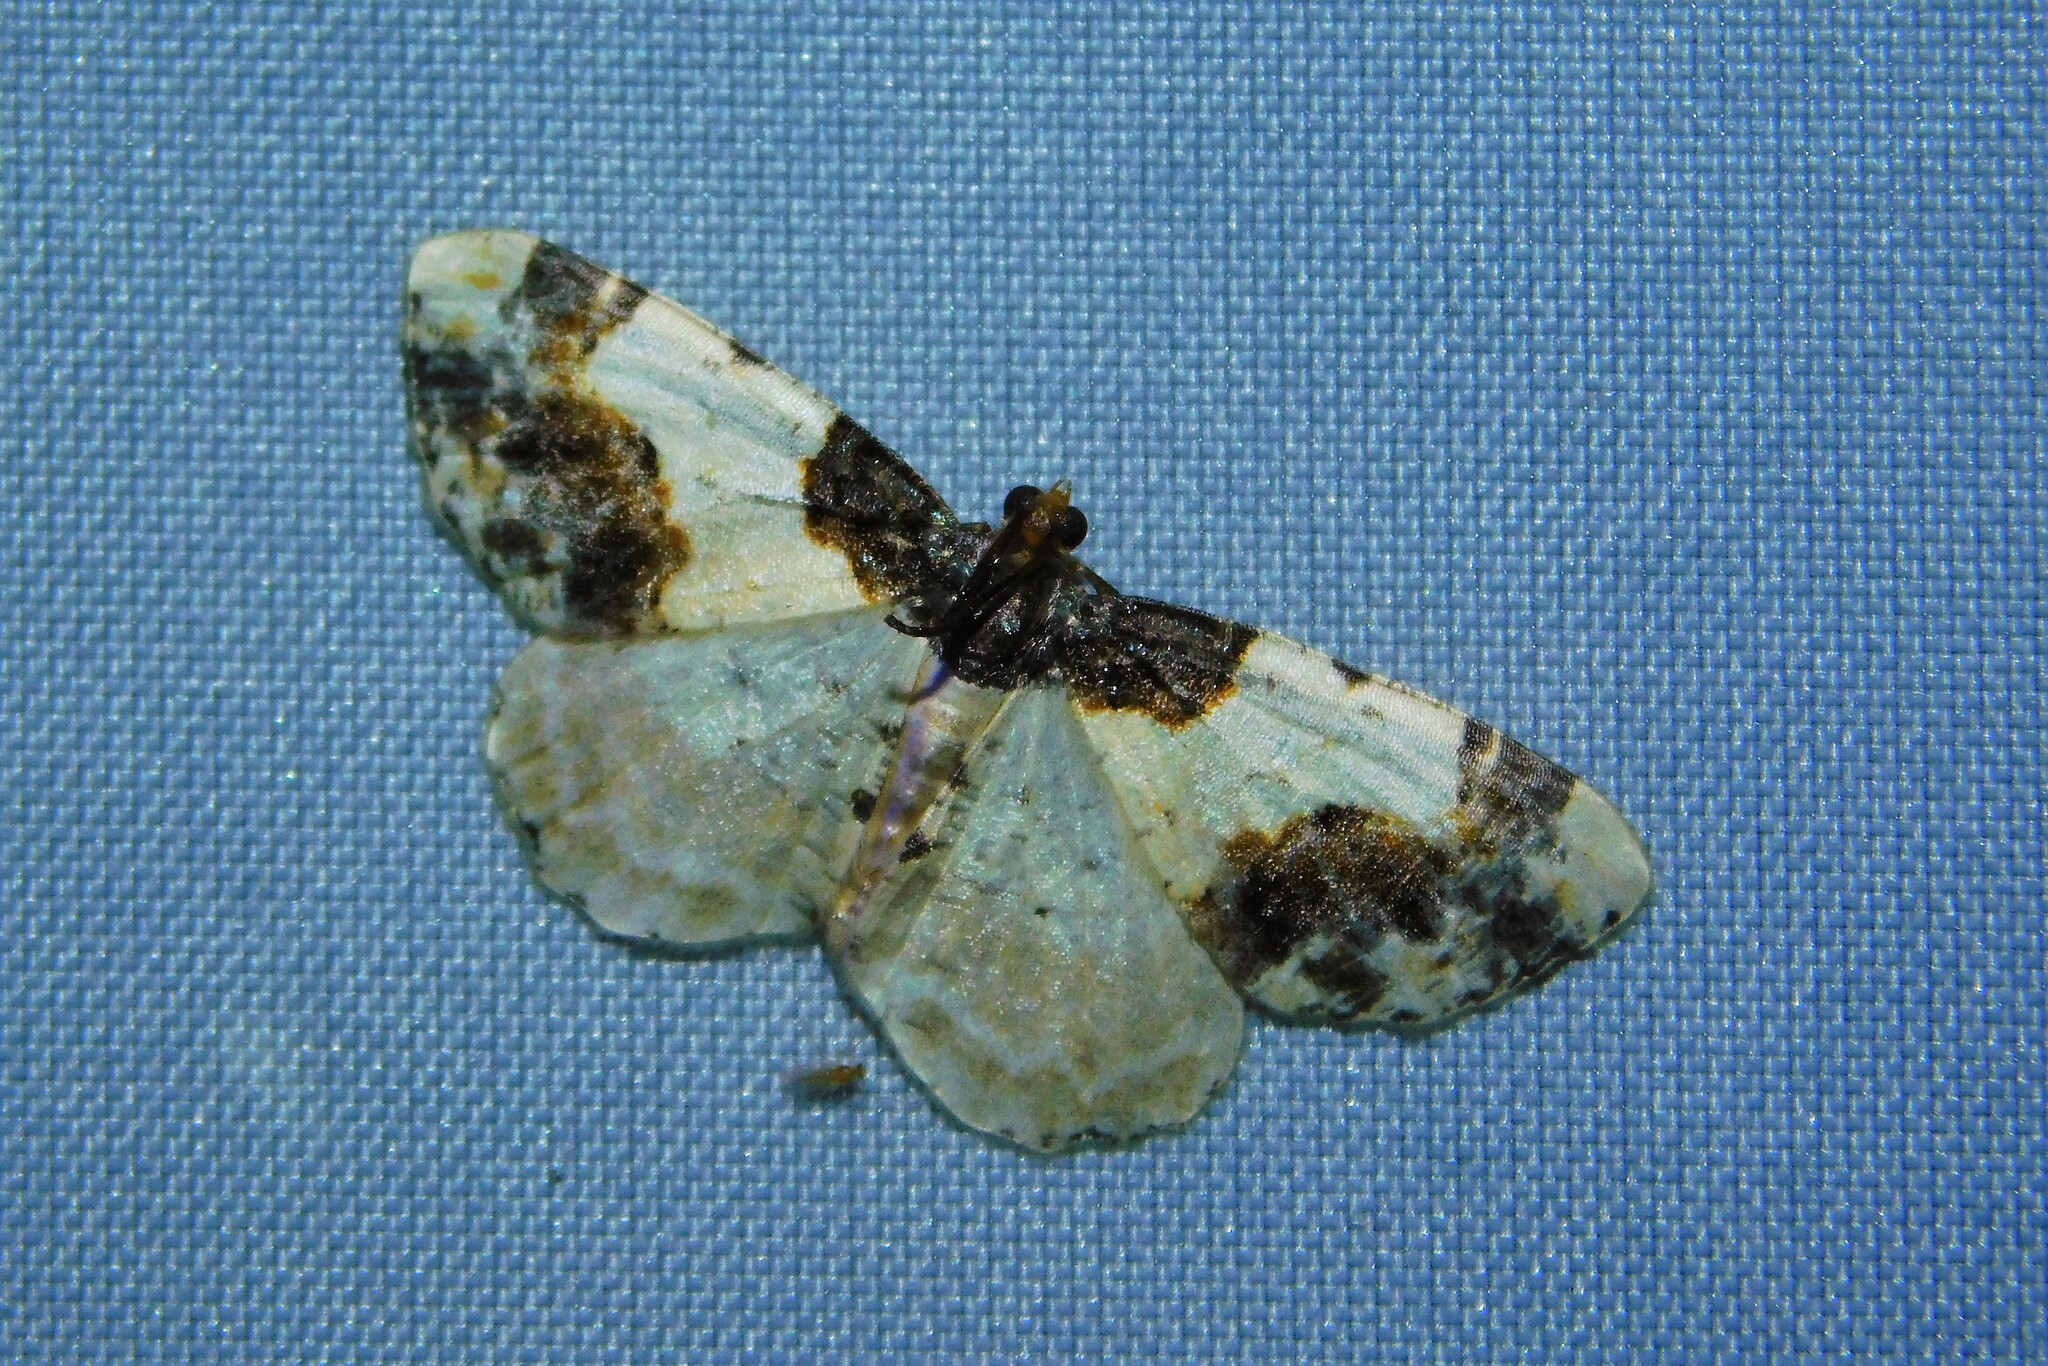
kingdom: Animalia
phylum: Arthropoda
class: Insecta
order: Lepidoptera
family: Geometridae
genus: Ligdia
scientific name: Ligdia adustata
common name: Scorched carpet
